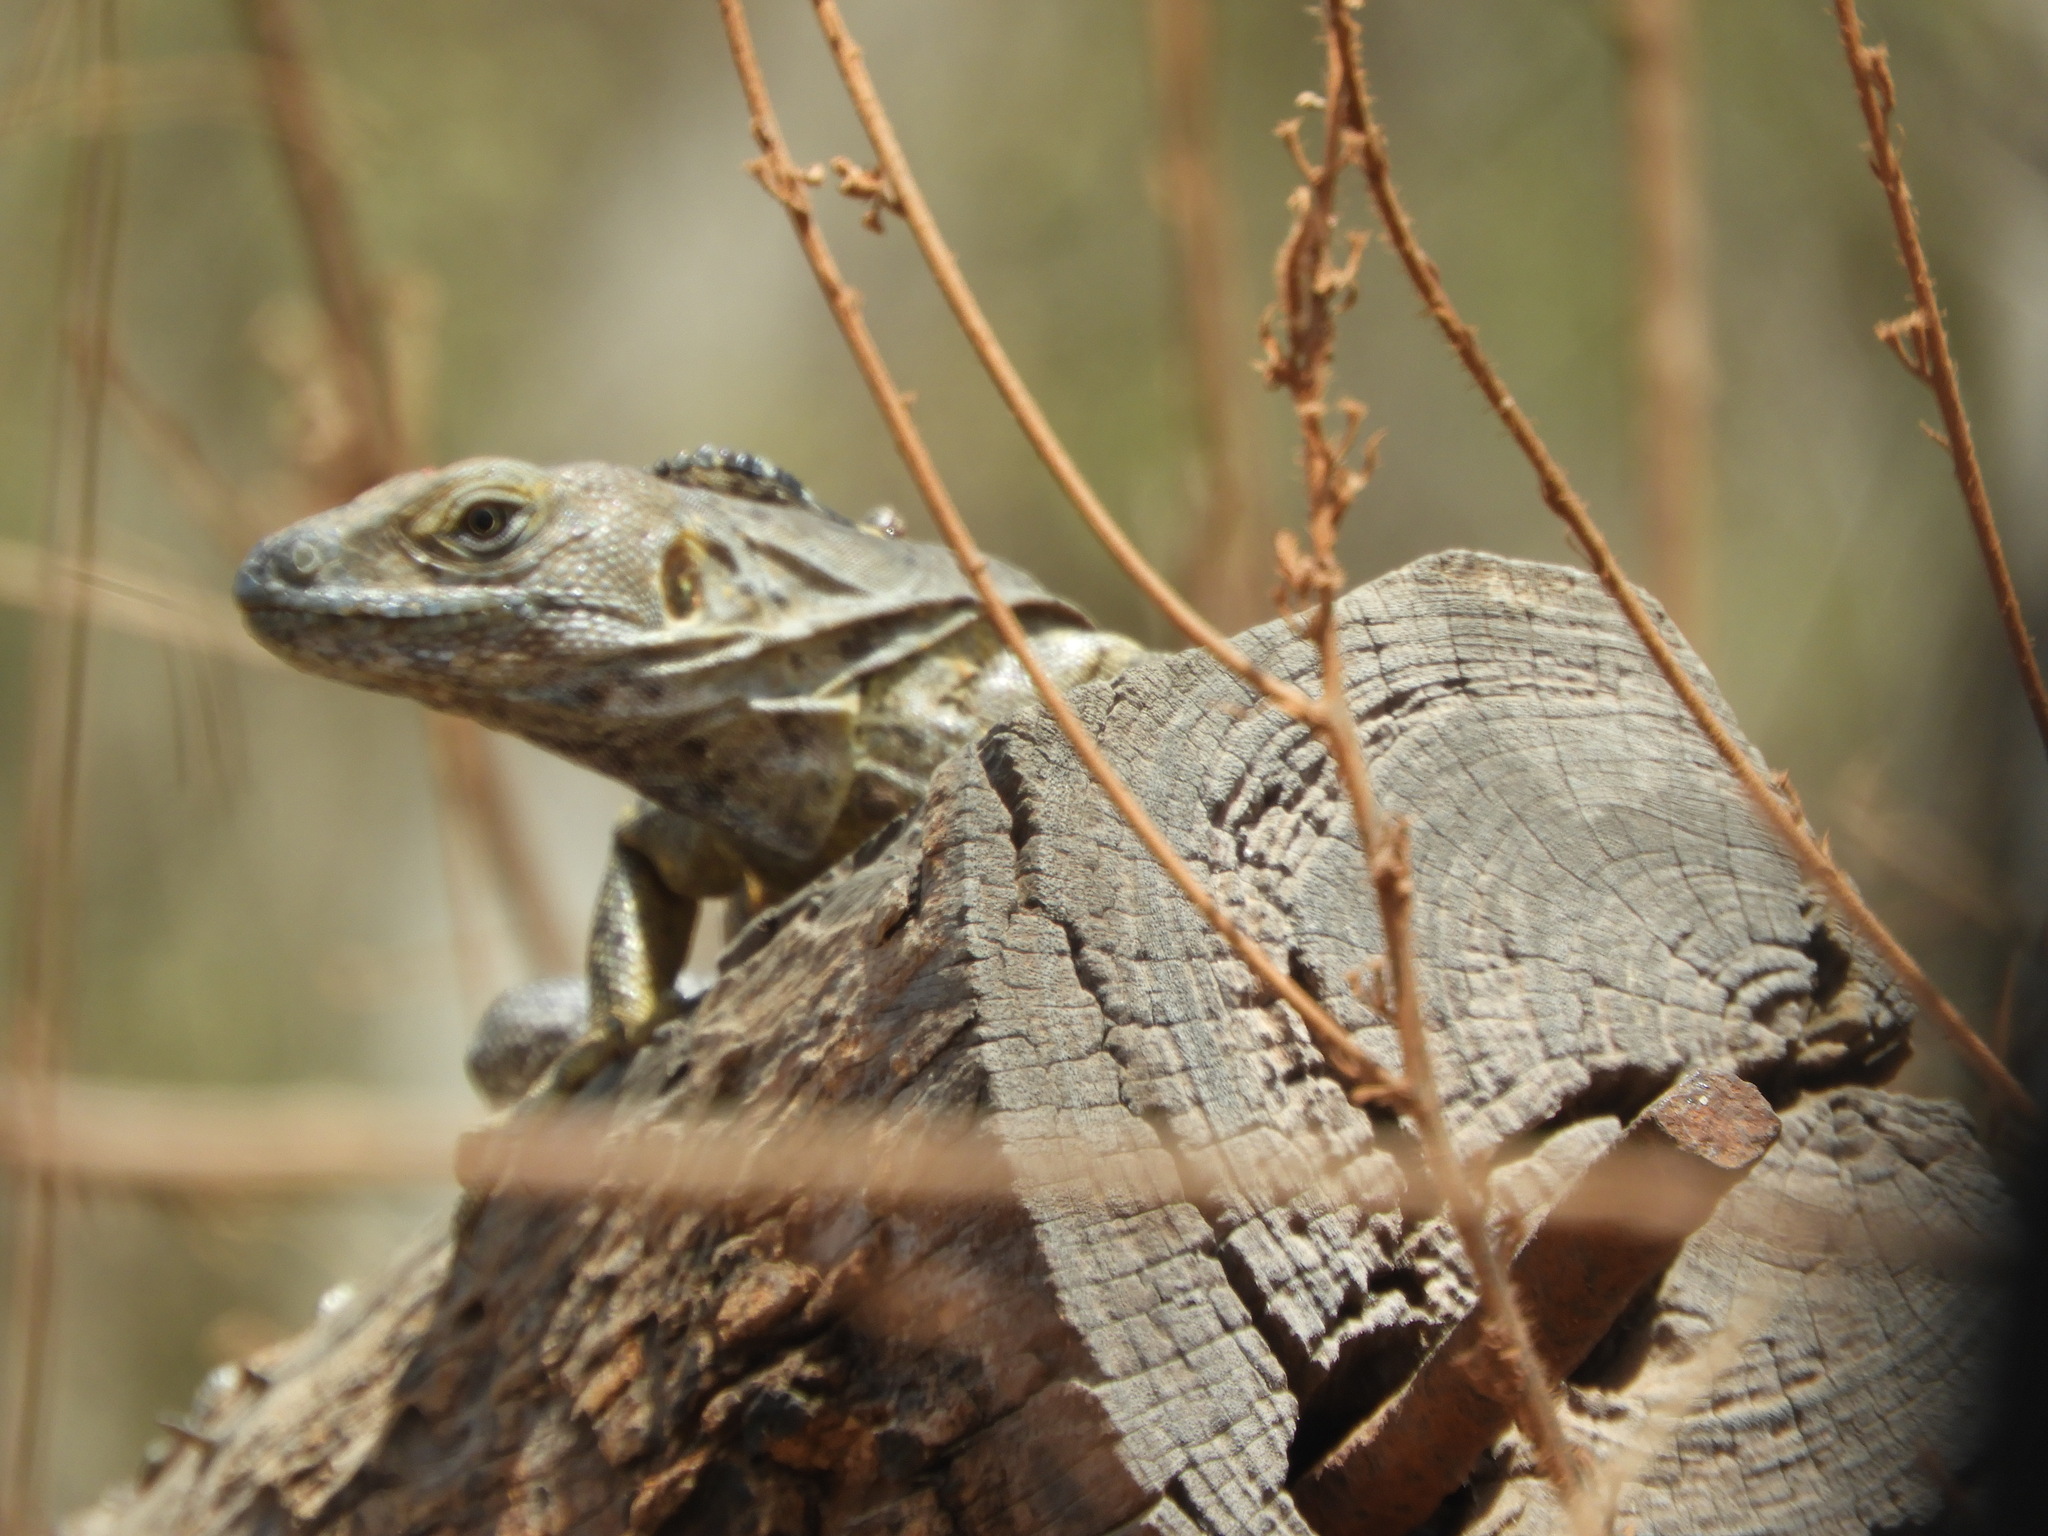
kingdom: Animalia
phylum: Chordata
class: Squamata
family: Iguanidae
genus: Ctenosaura
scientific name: Ctenosaura pectinata
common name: Guerreran spiny-tailed iguana
